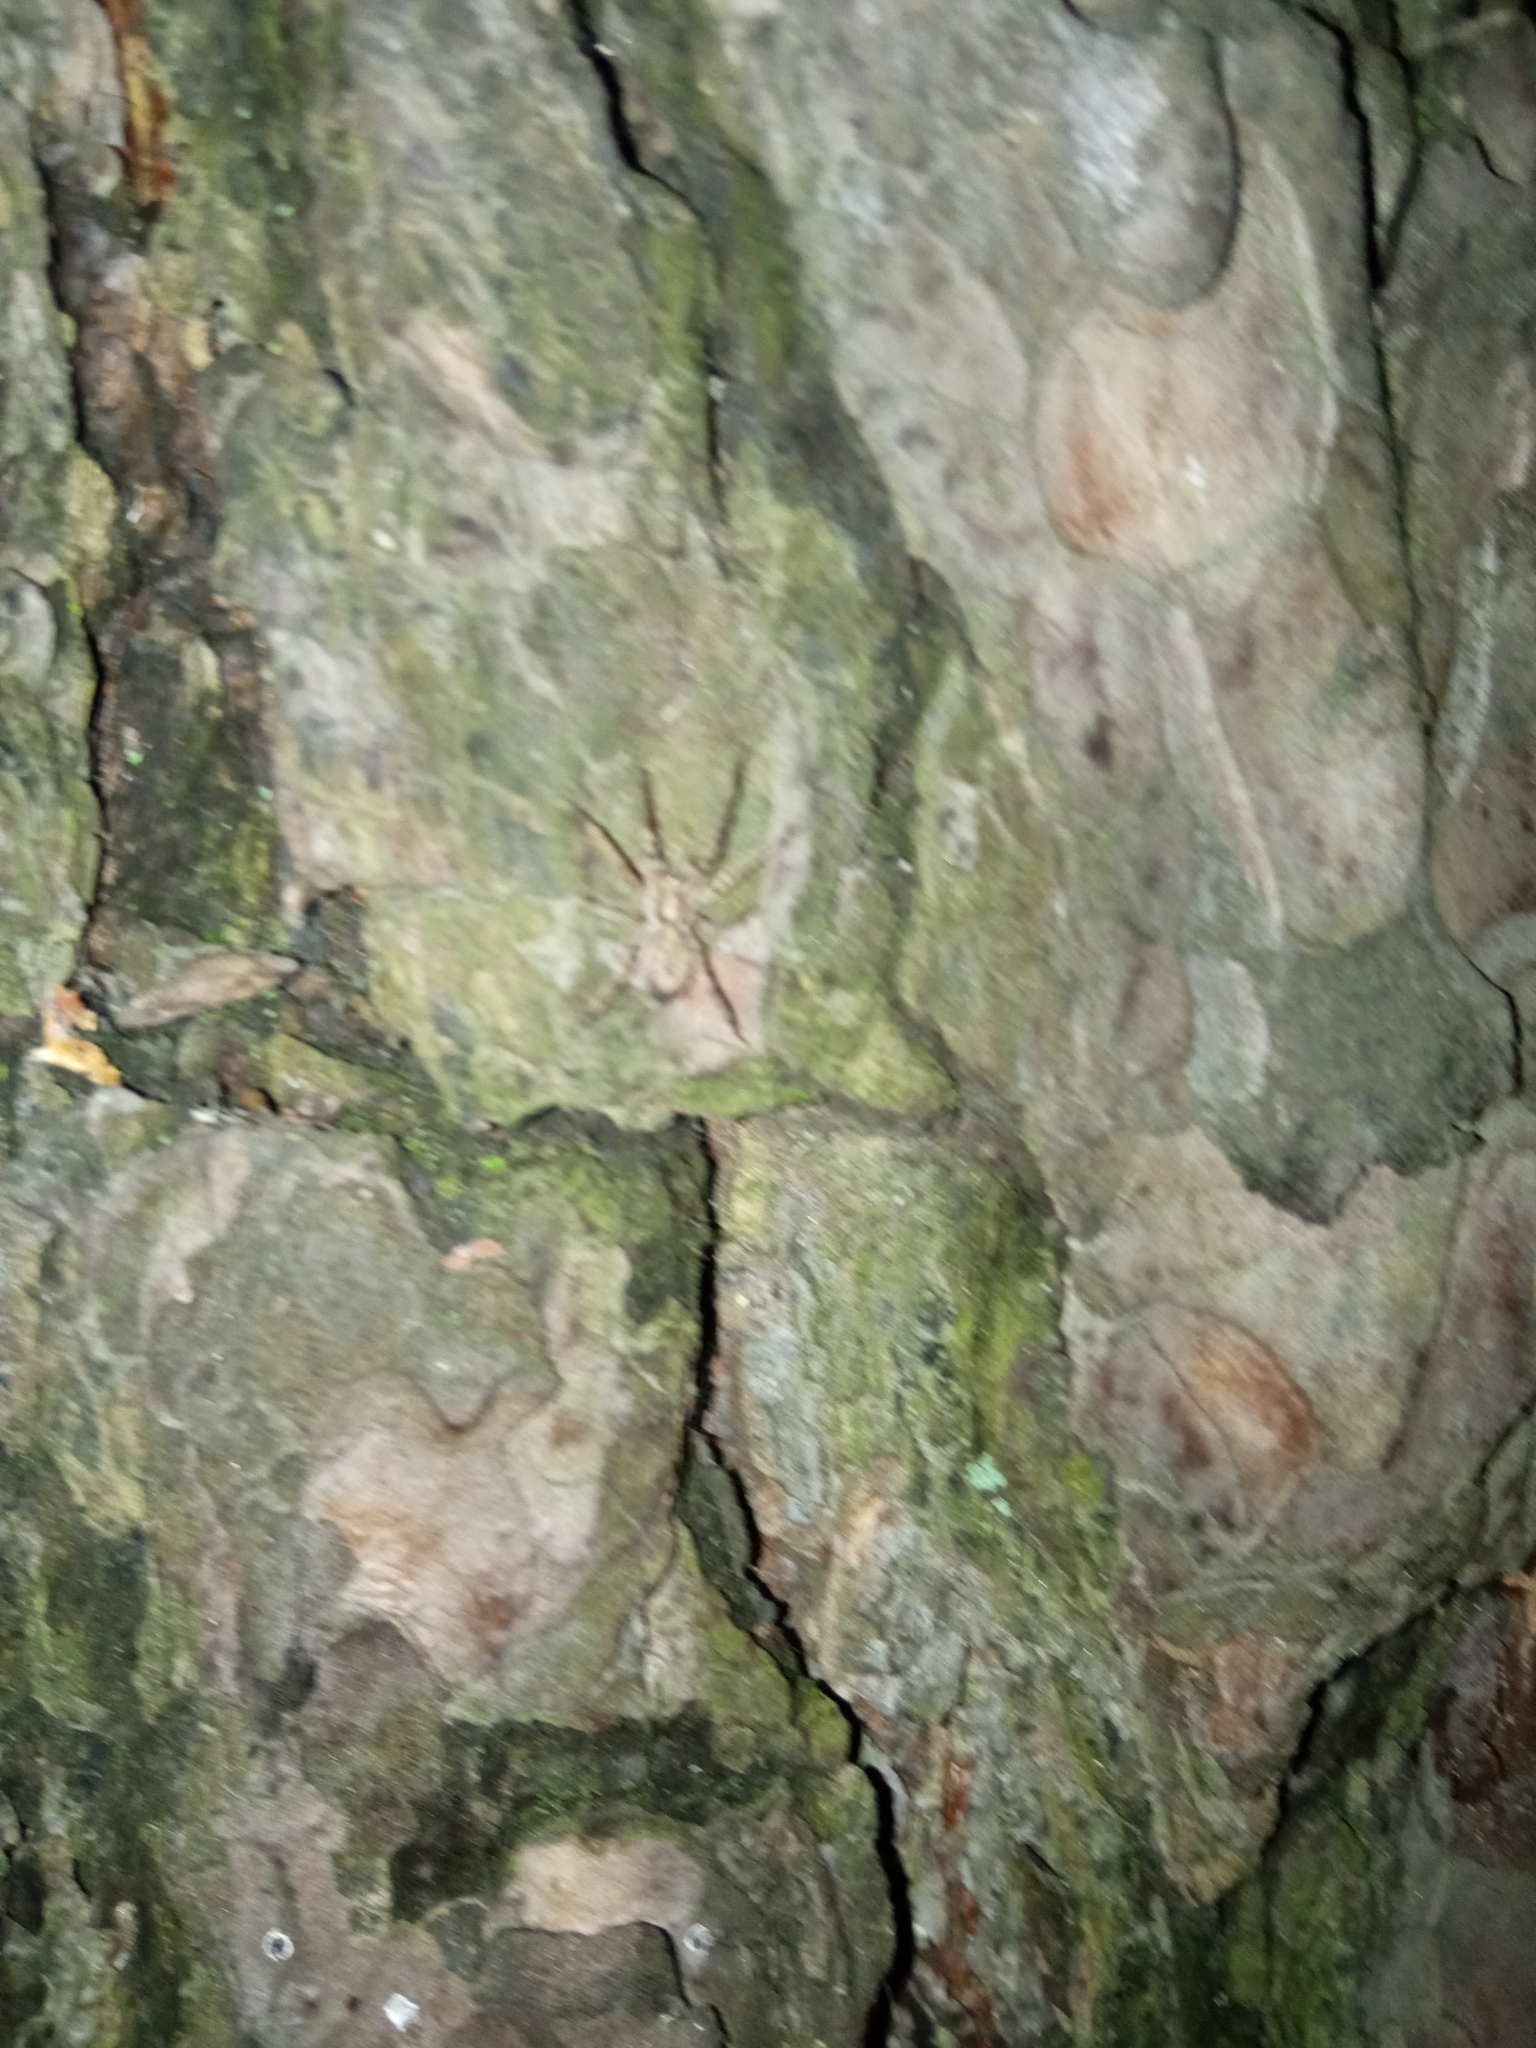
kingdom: Animalia
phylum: Arthropoda
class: Arachnida
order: Araneae
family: Anyphaenidae
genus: Anyphaena
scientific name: Anyphaena accentuata
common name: Buzzing spider
